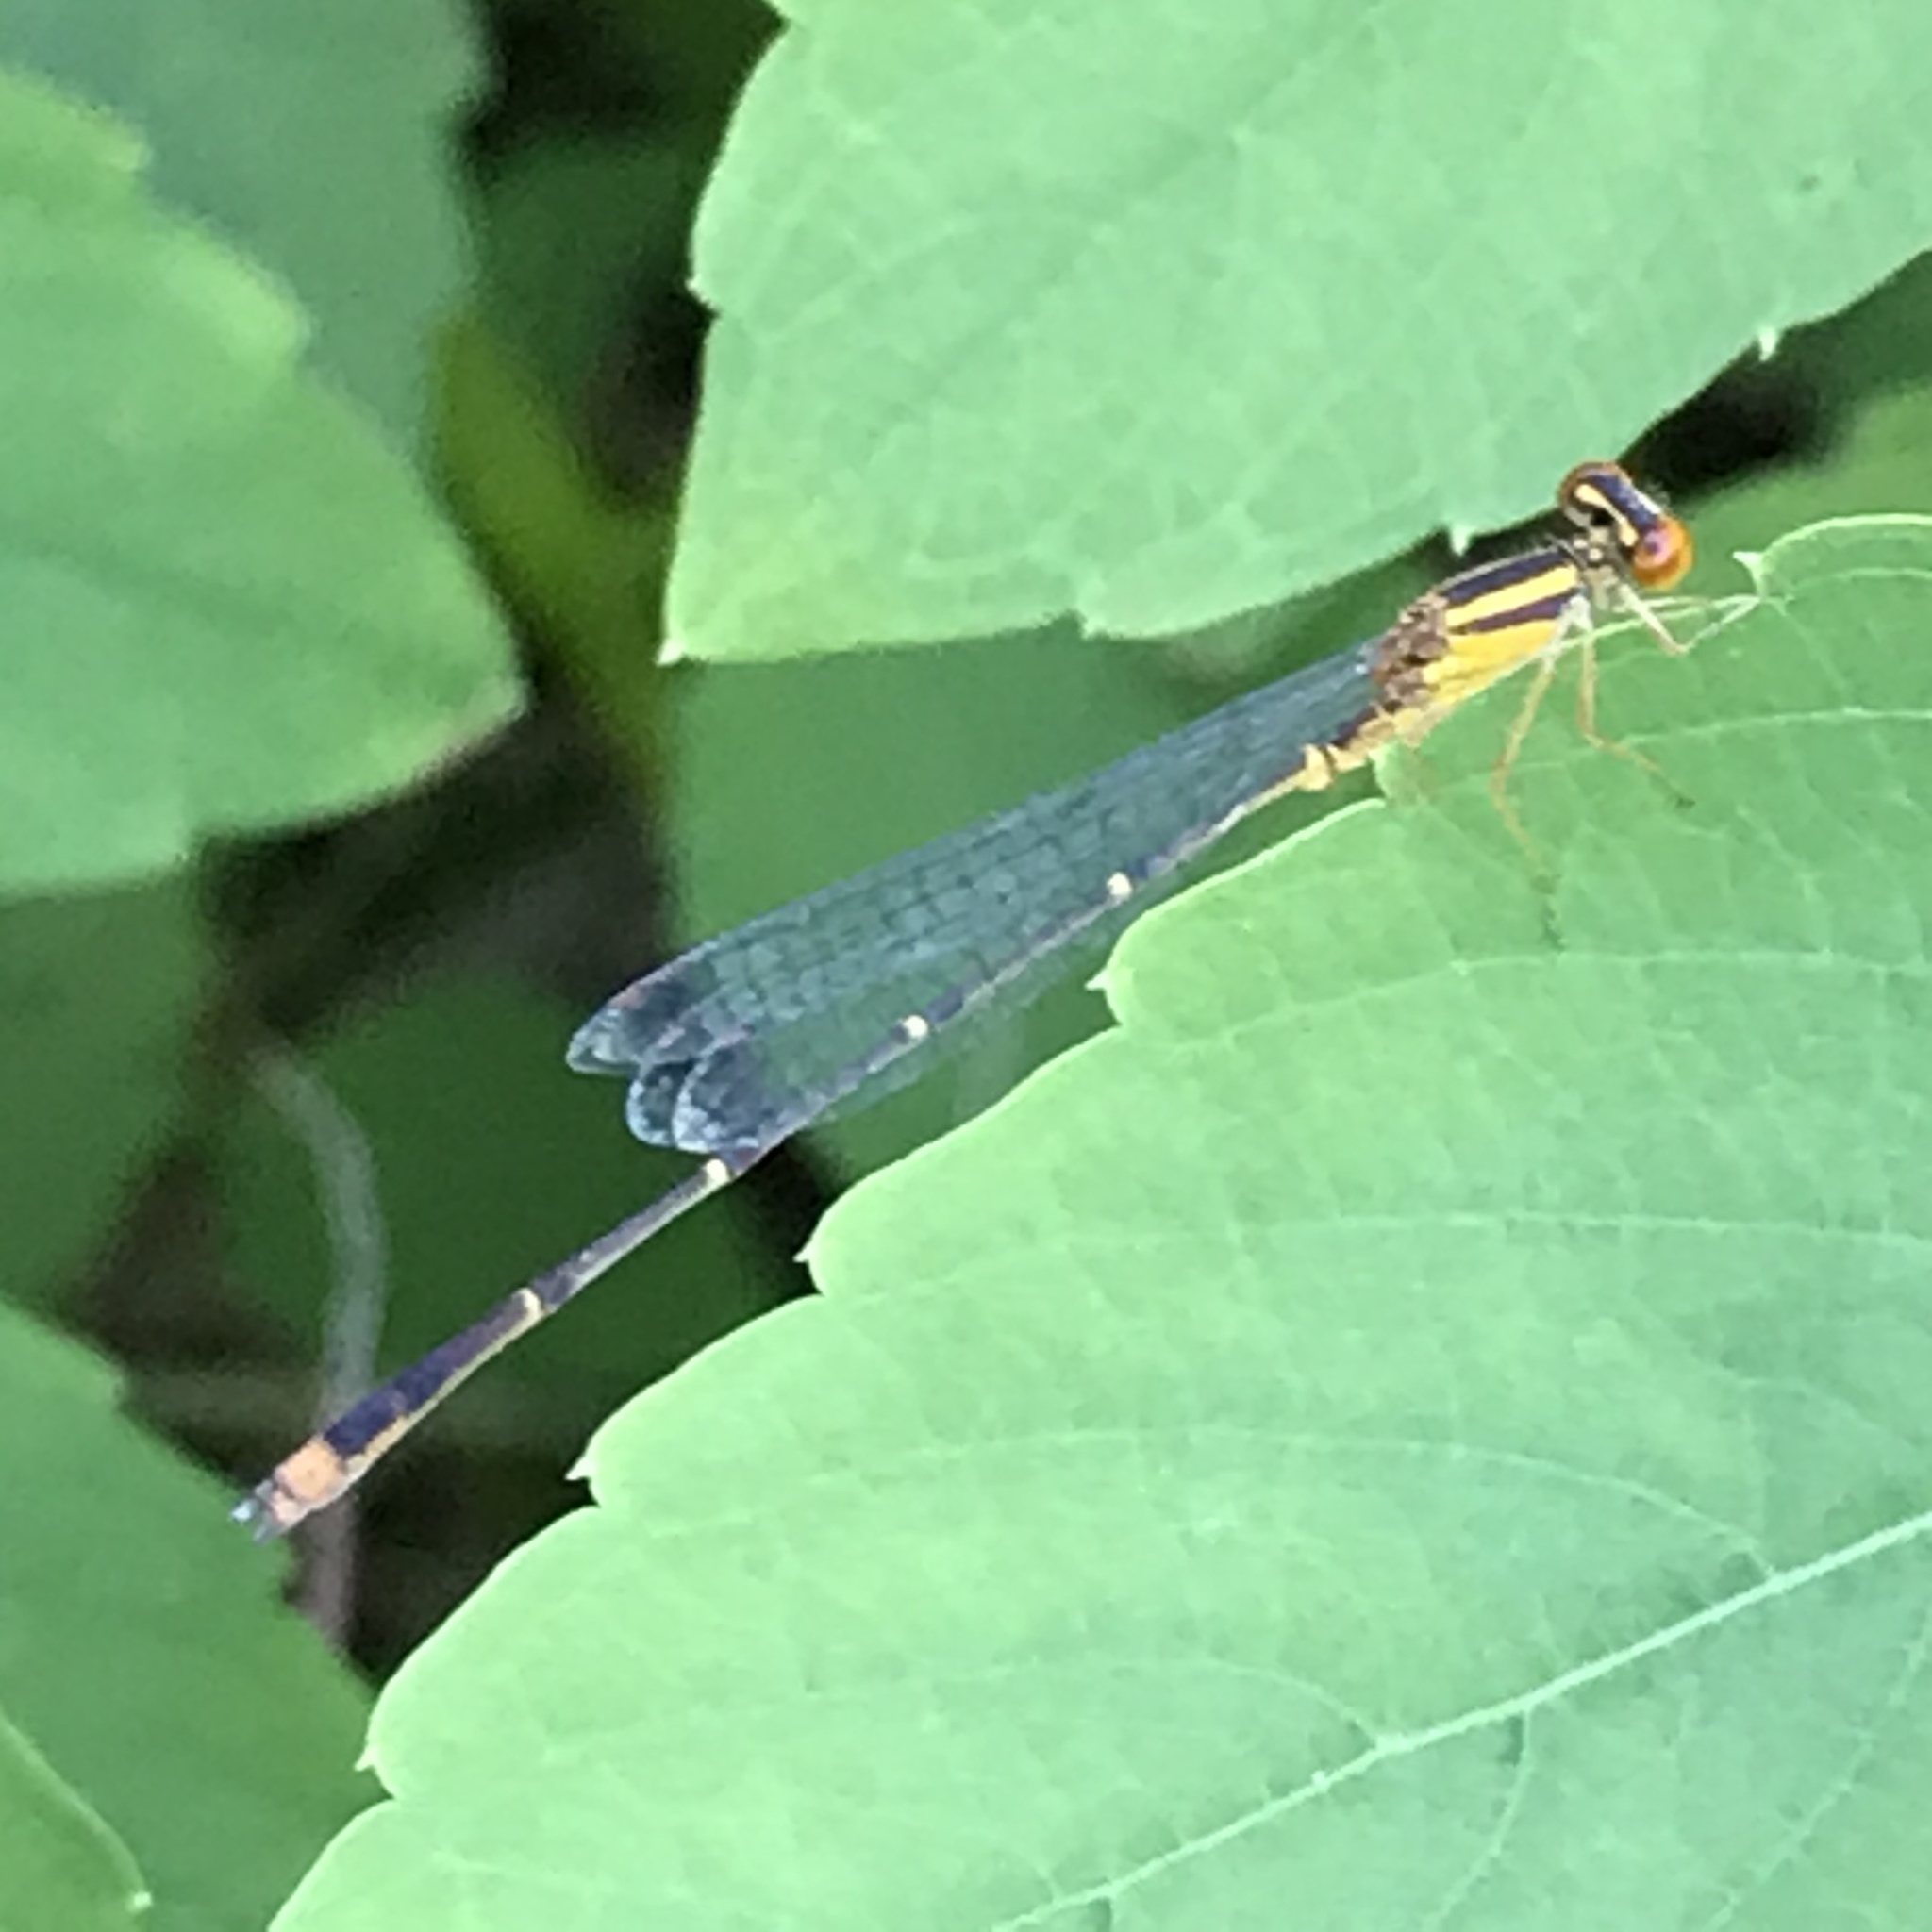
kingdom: Animalia
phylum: Arthropoda
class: Insecta
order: Odonata
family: Coenagrionidae
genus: Enallagma
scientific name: Enallagma signatum
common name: Orange bluet
